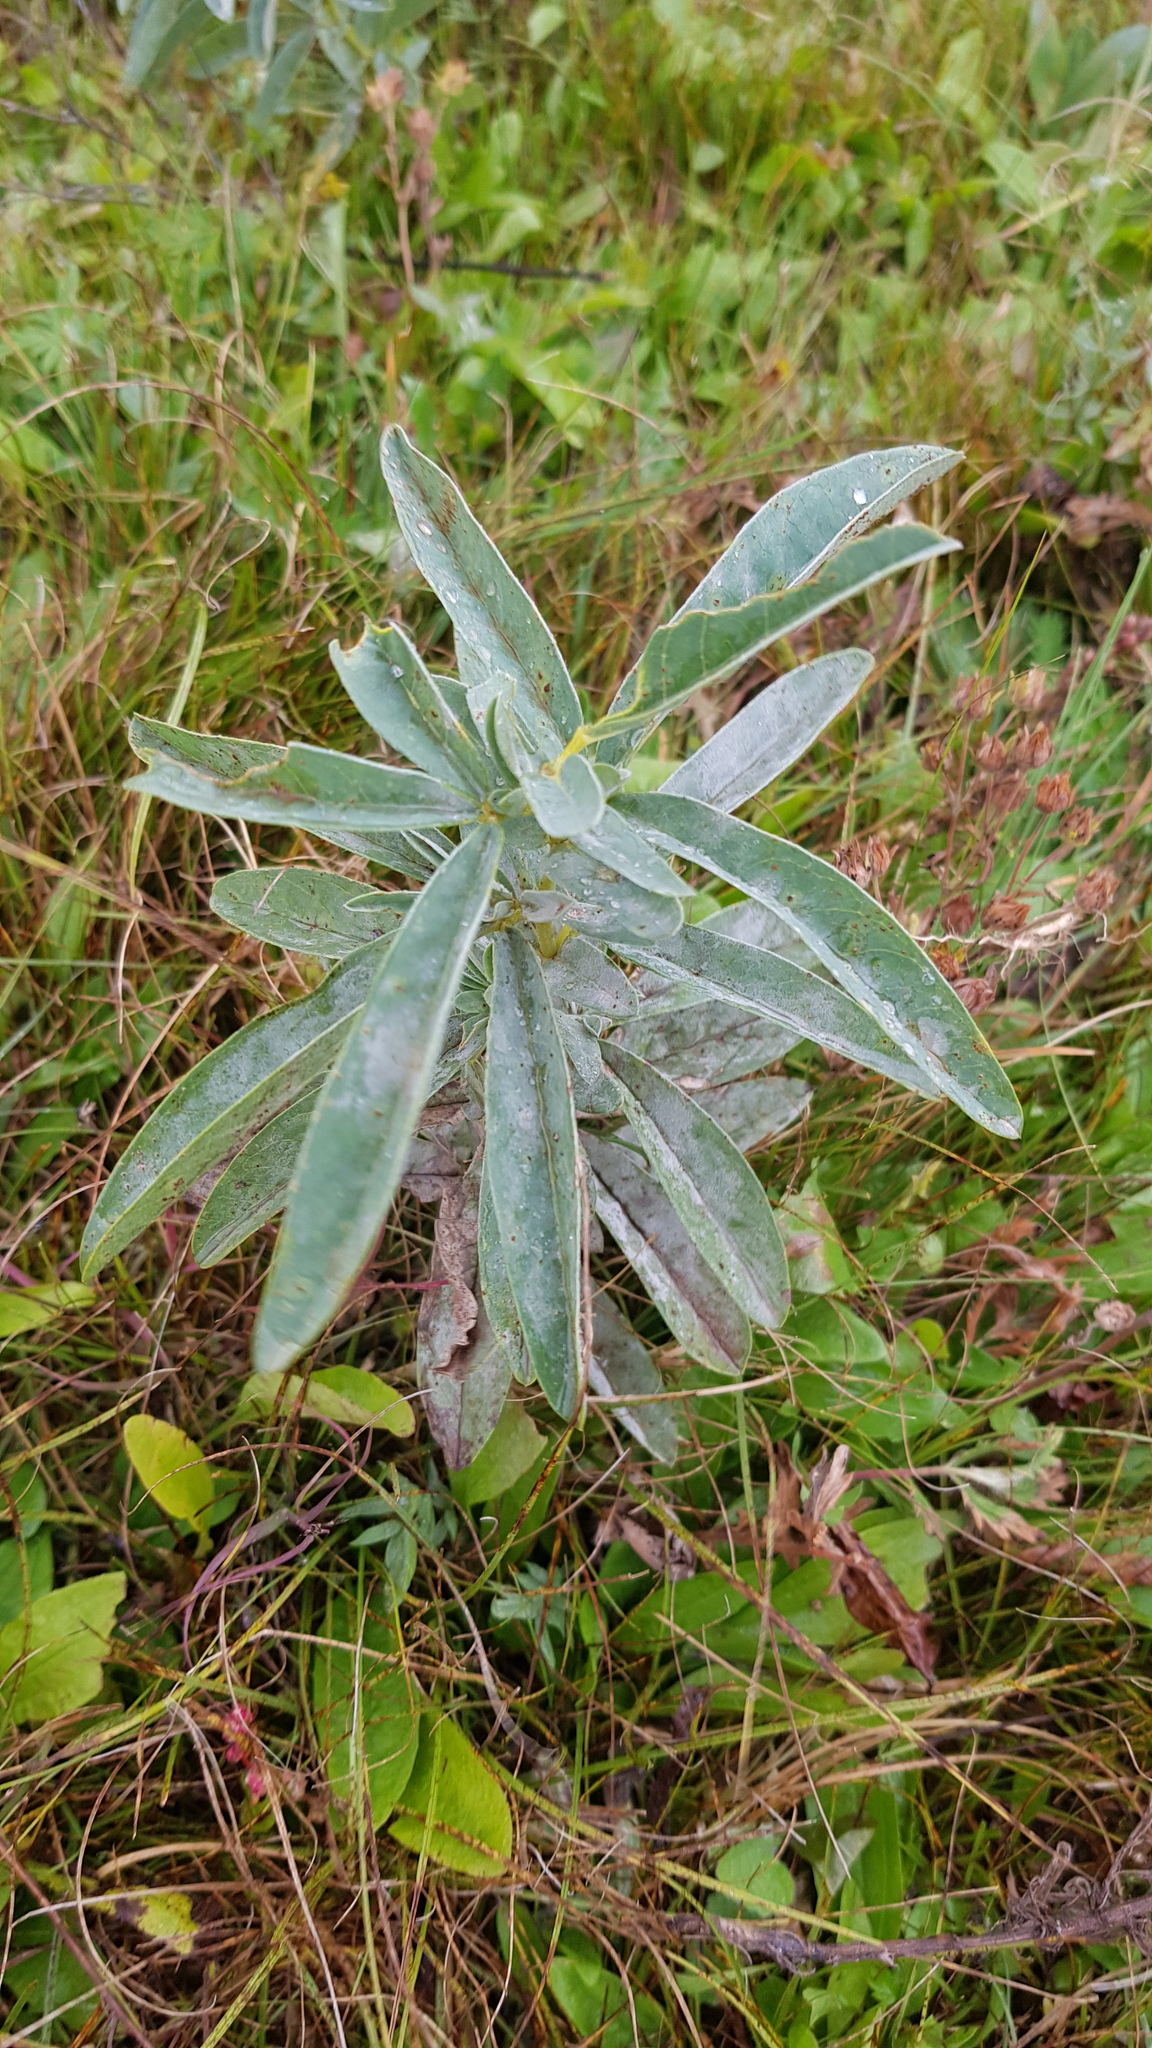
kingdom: Plantae
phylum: Tracheophyta
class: Magnoliopsida
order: Fabales
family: Fabaceae
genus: Thermopsis
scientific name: Thermopsis lanceolata
